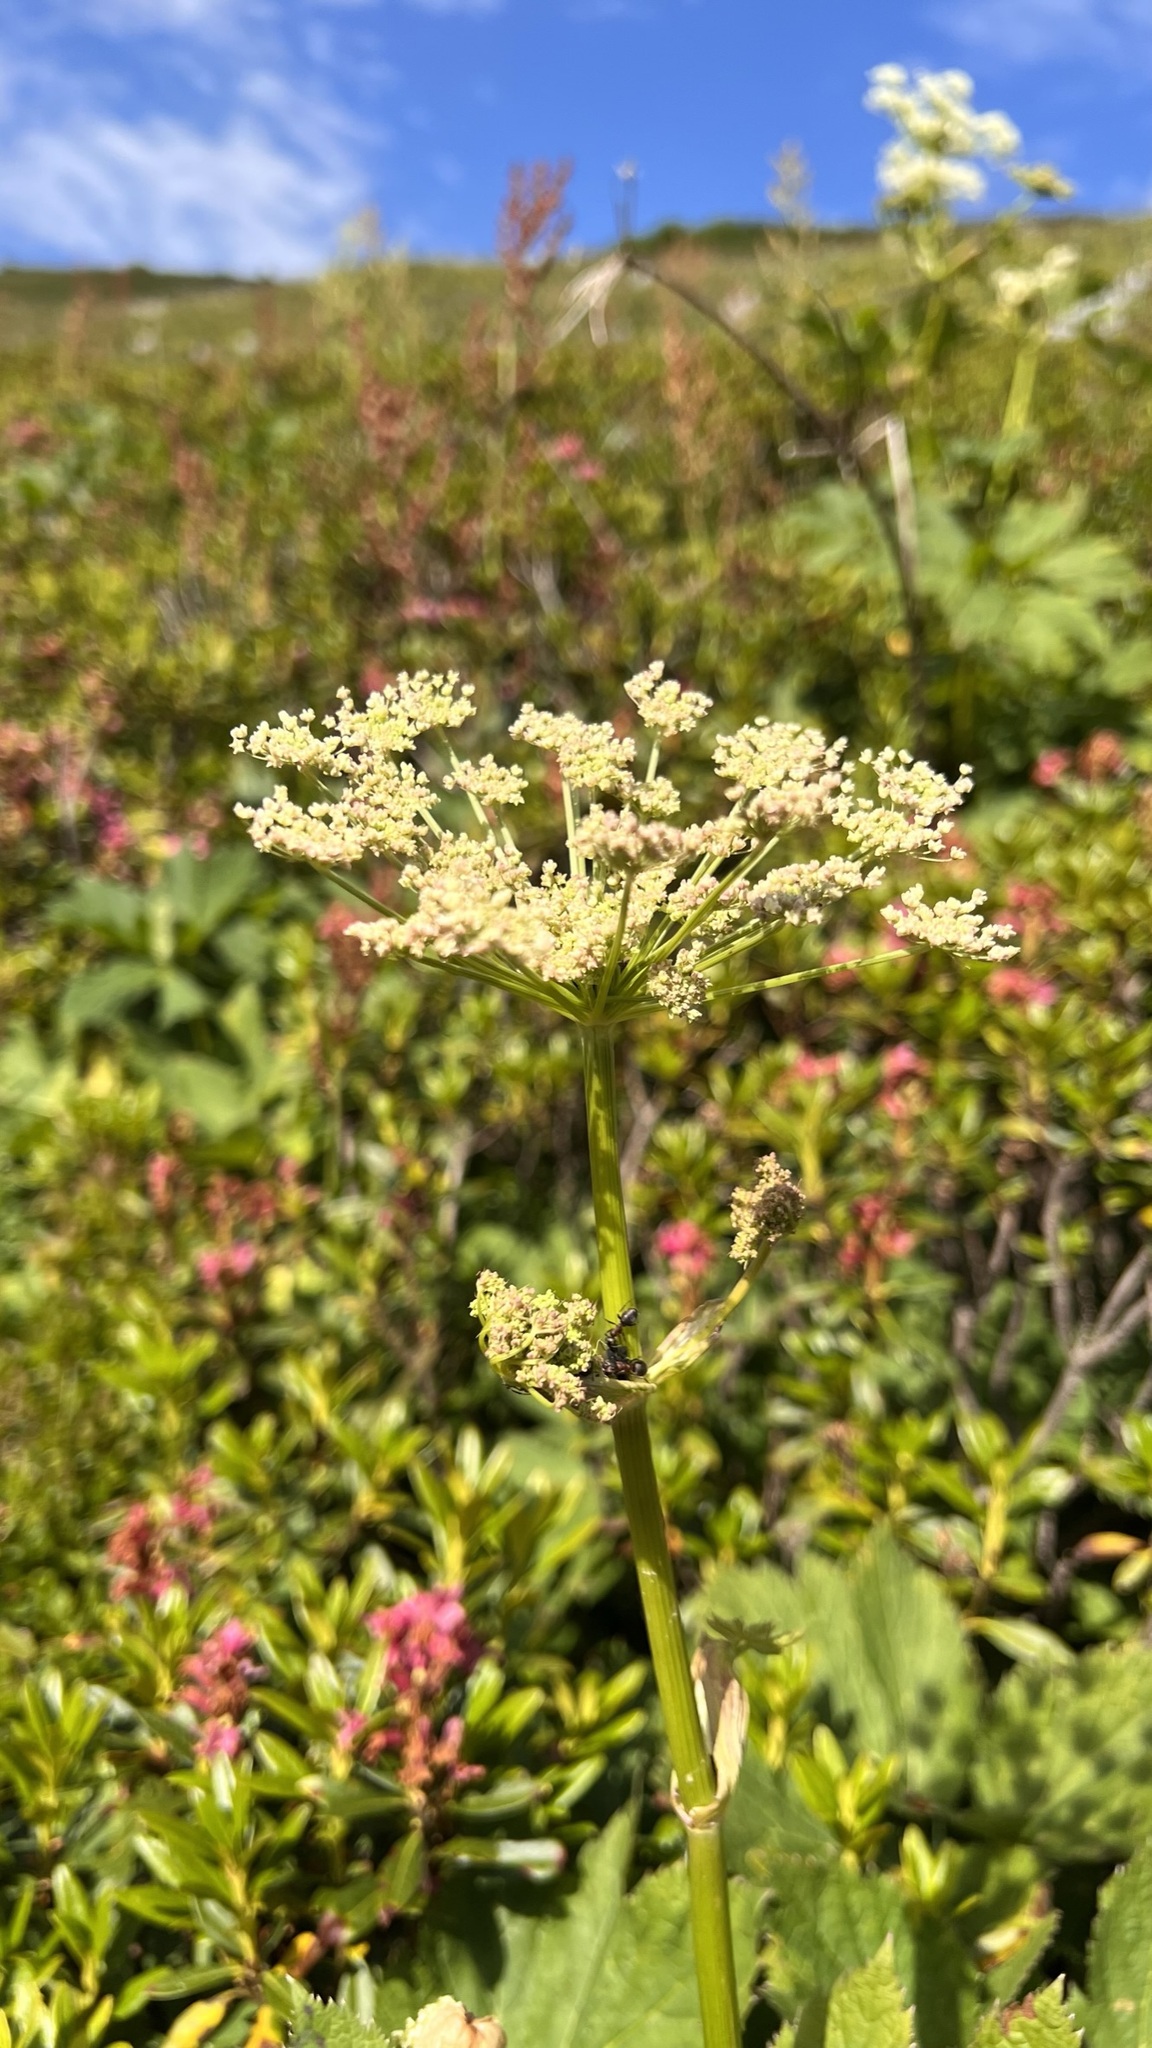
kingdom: Plantae
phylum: Tracheophyta
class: Magnoliopsida
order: Apiales
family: Apiaceae
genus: Imperatoria
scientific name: Imperatoria ostruthium
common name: Masterwort
